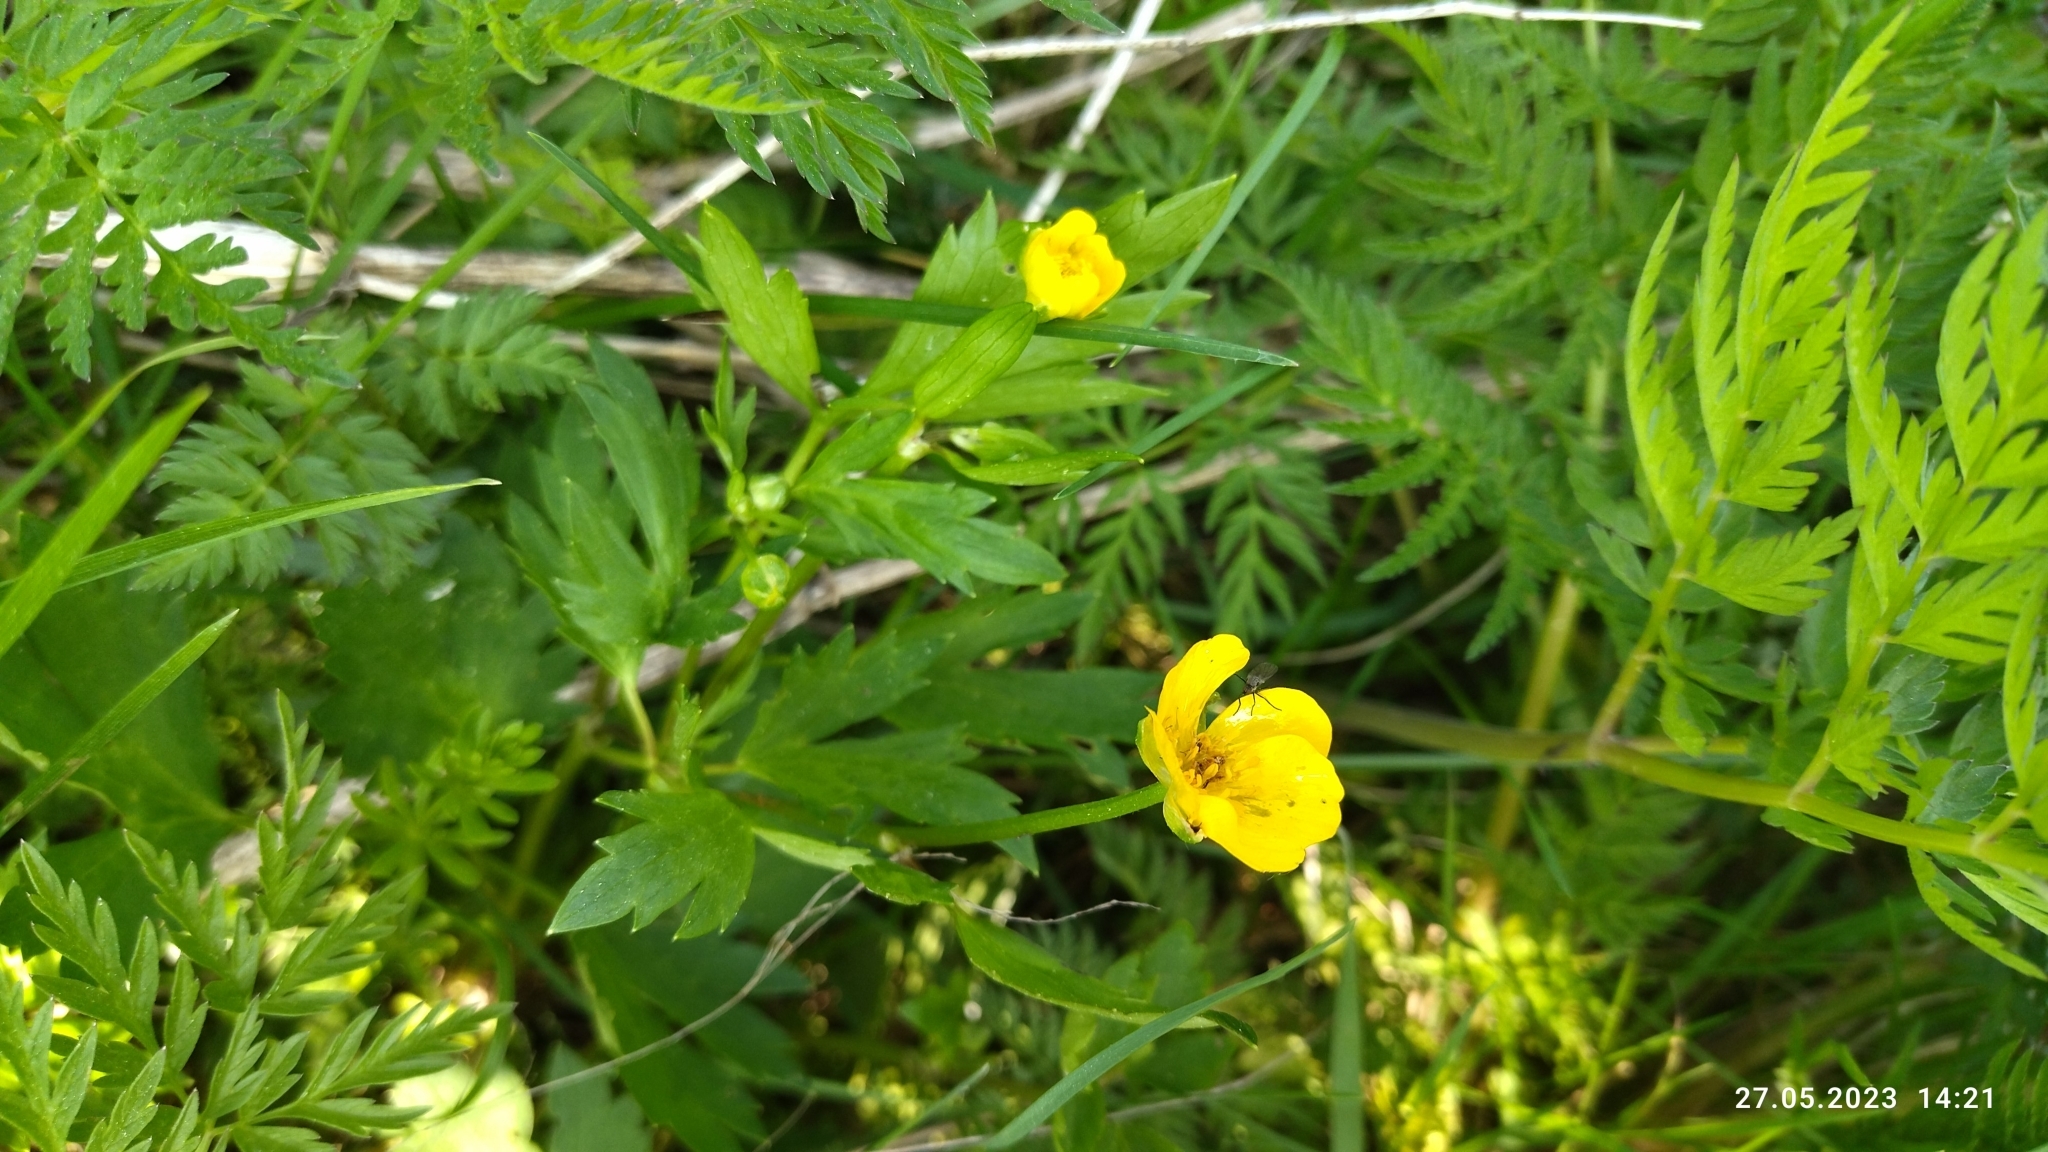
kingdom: Plantae
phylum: Tracheophyta
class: Magnoliopsida
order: Ranunculales
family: Ranunculaceae
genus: Ranunculus
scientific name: Ranunculus repens
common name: Creeping buttercup
